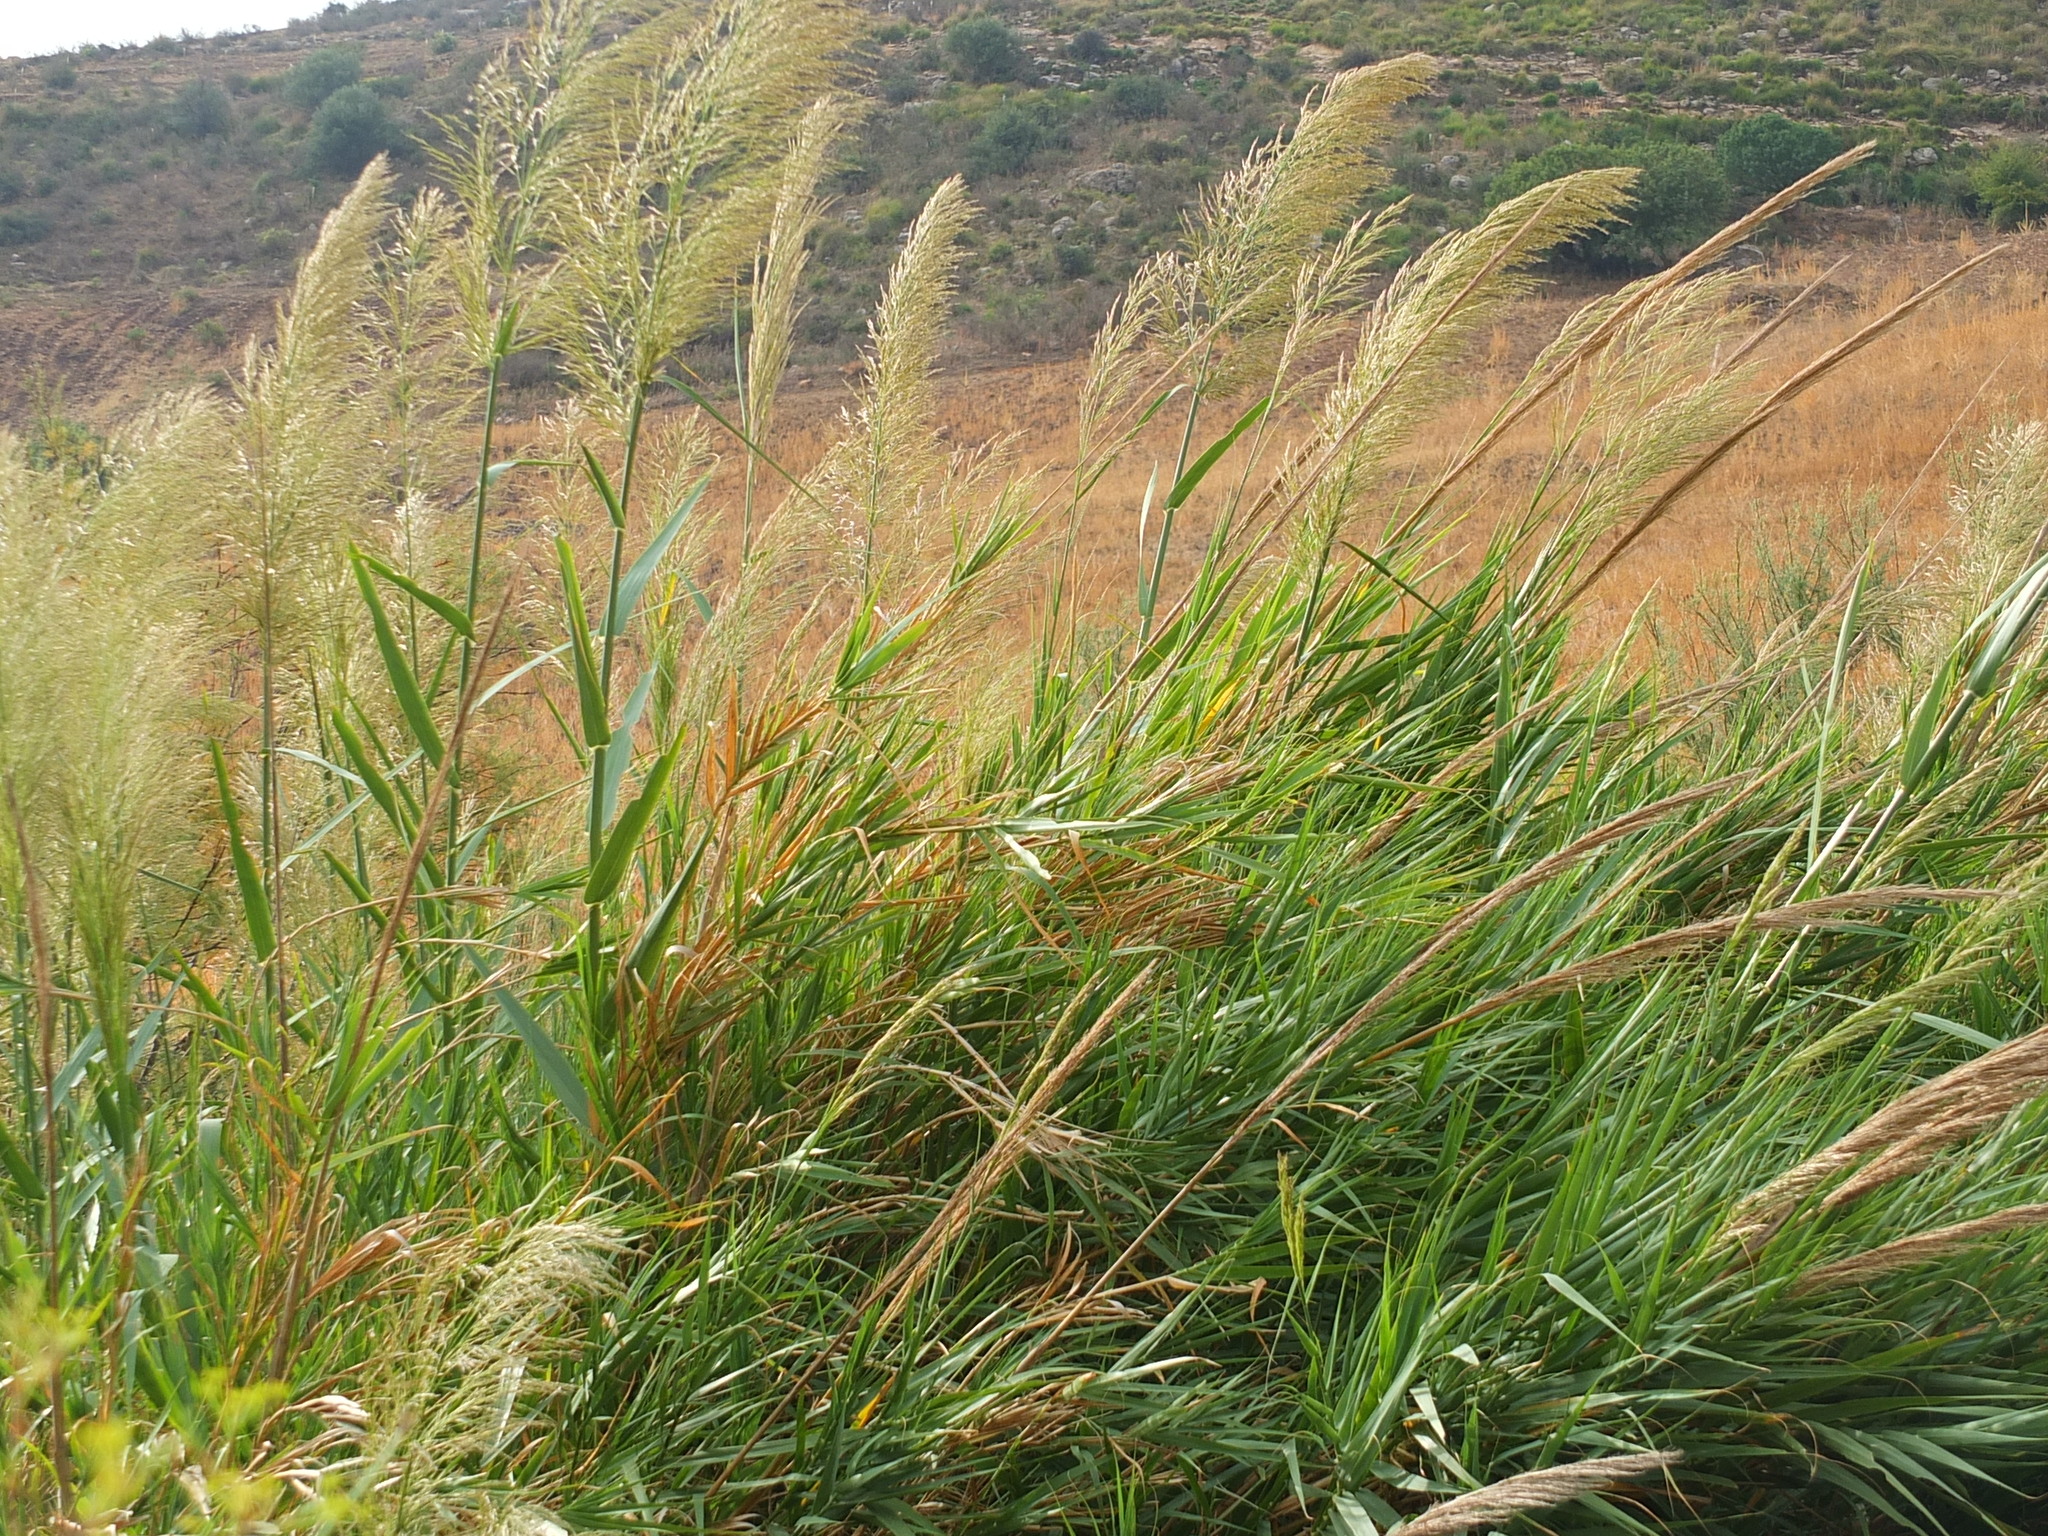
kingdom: Plantae
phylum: Tracheophyta
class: Liliopsida
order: Poales
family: Poaceae
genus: Phragmites
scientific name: Phragmites australis
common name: Common reed
